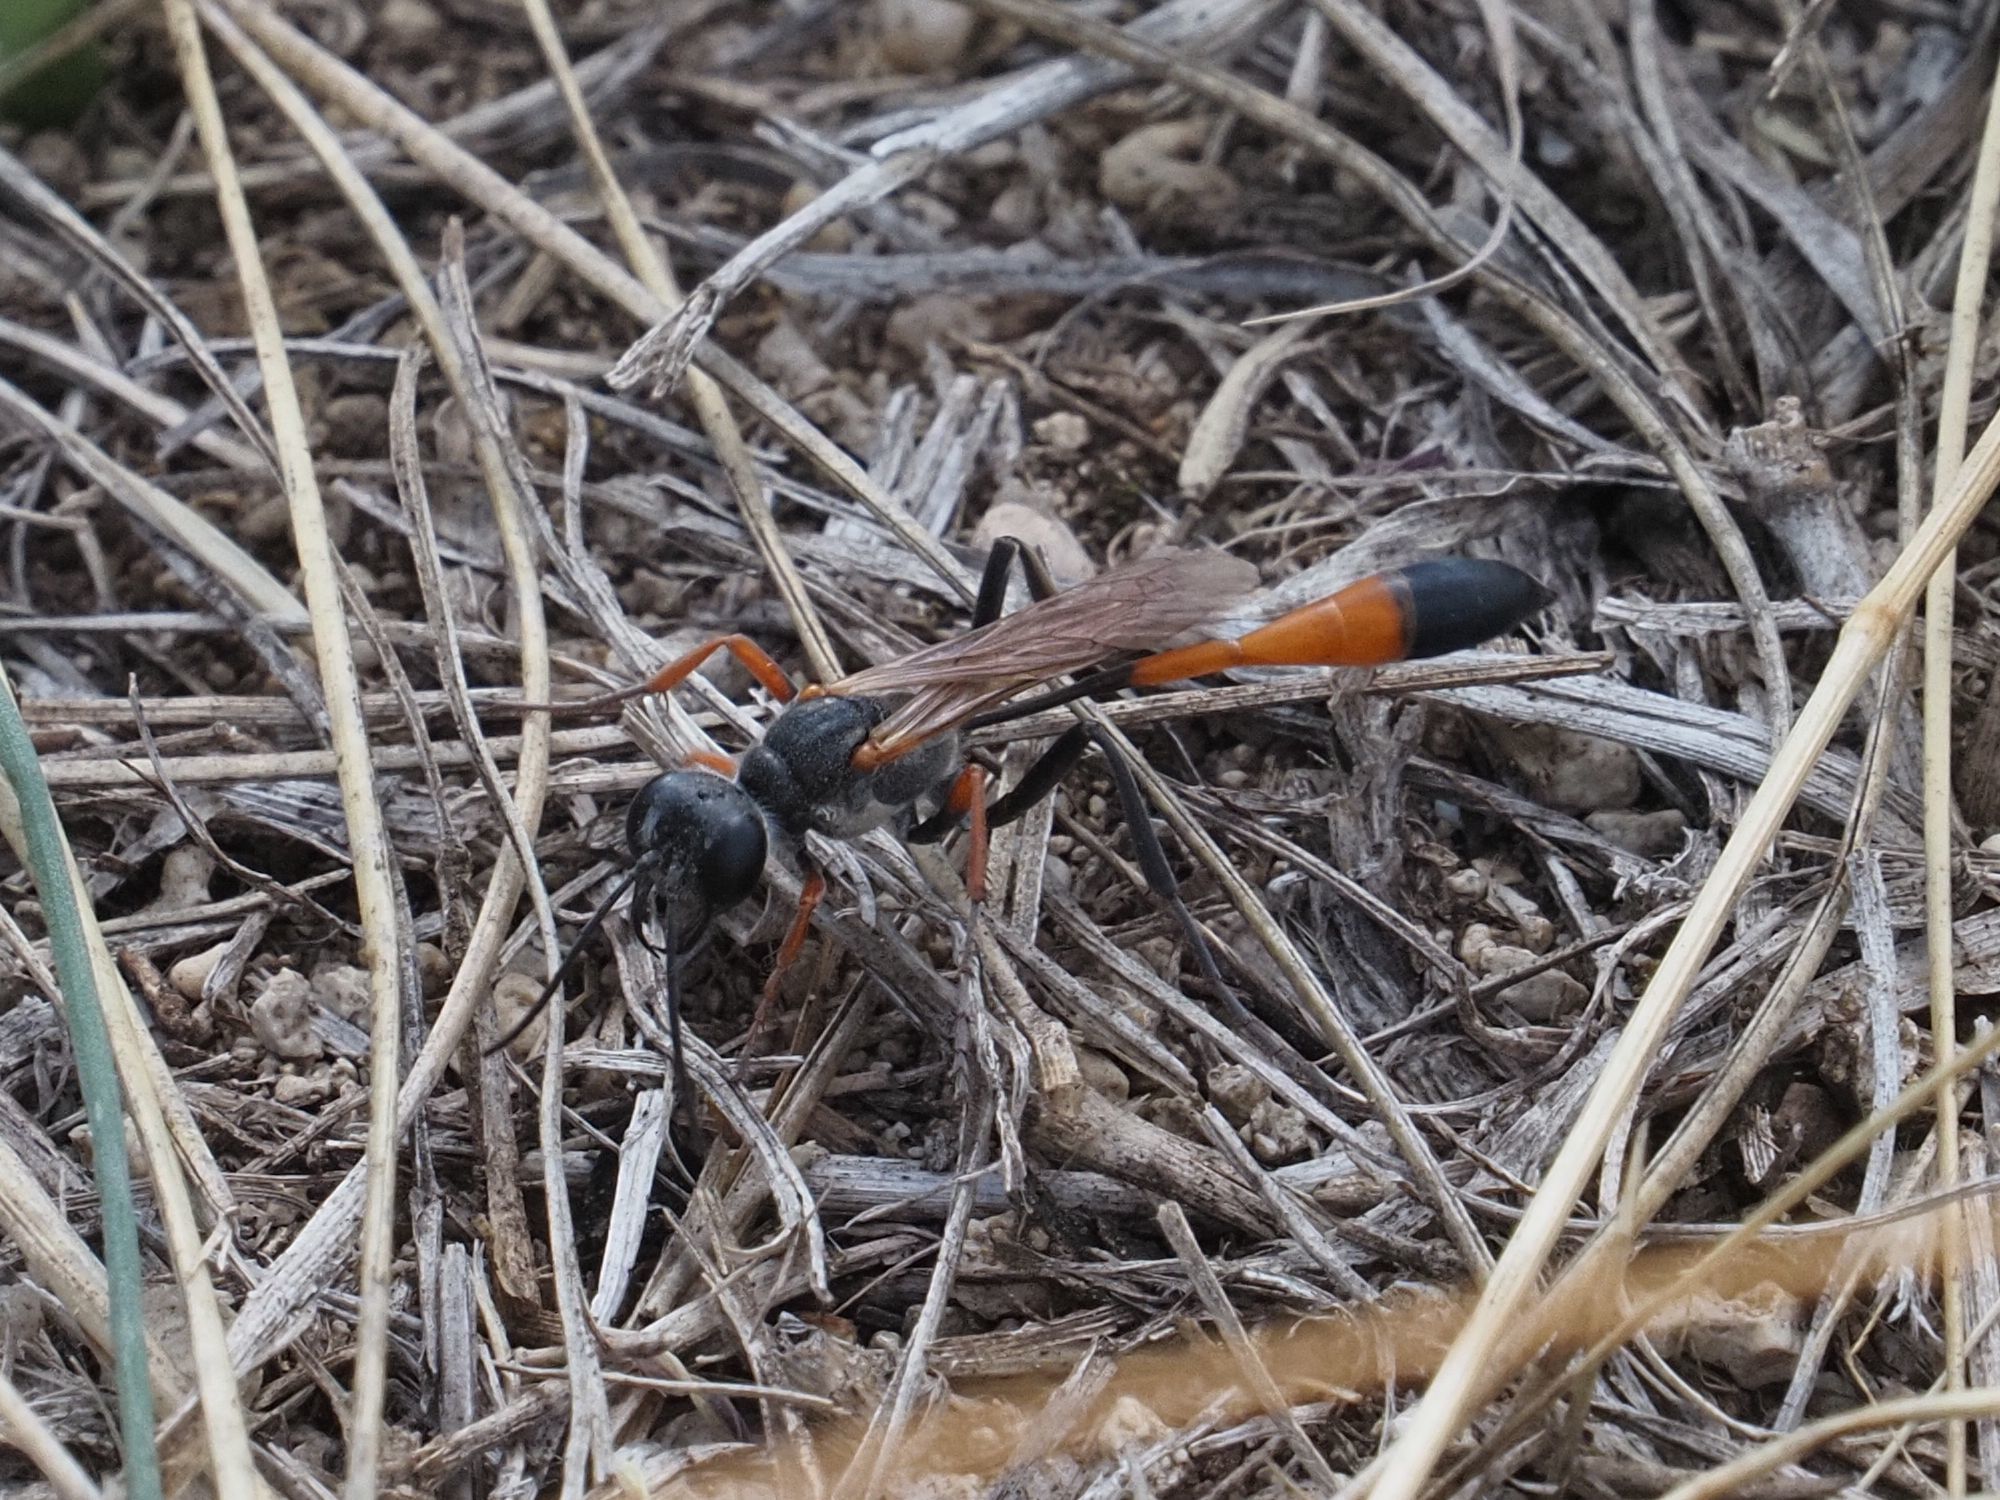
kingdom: Animalia
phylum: Arthropoda
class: Insecta
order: Hymenoptera
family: Sphecidae
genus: Ammophila
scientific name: Ammophila heydeni
